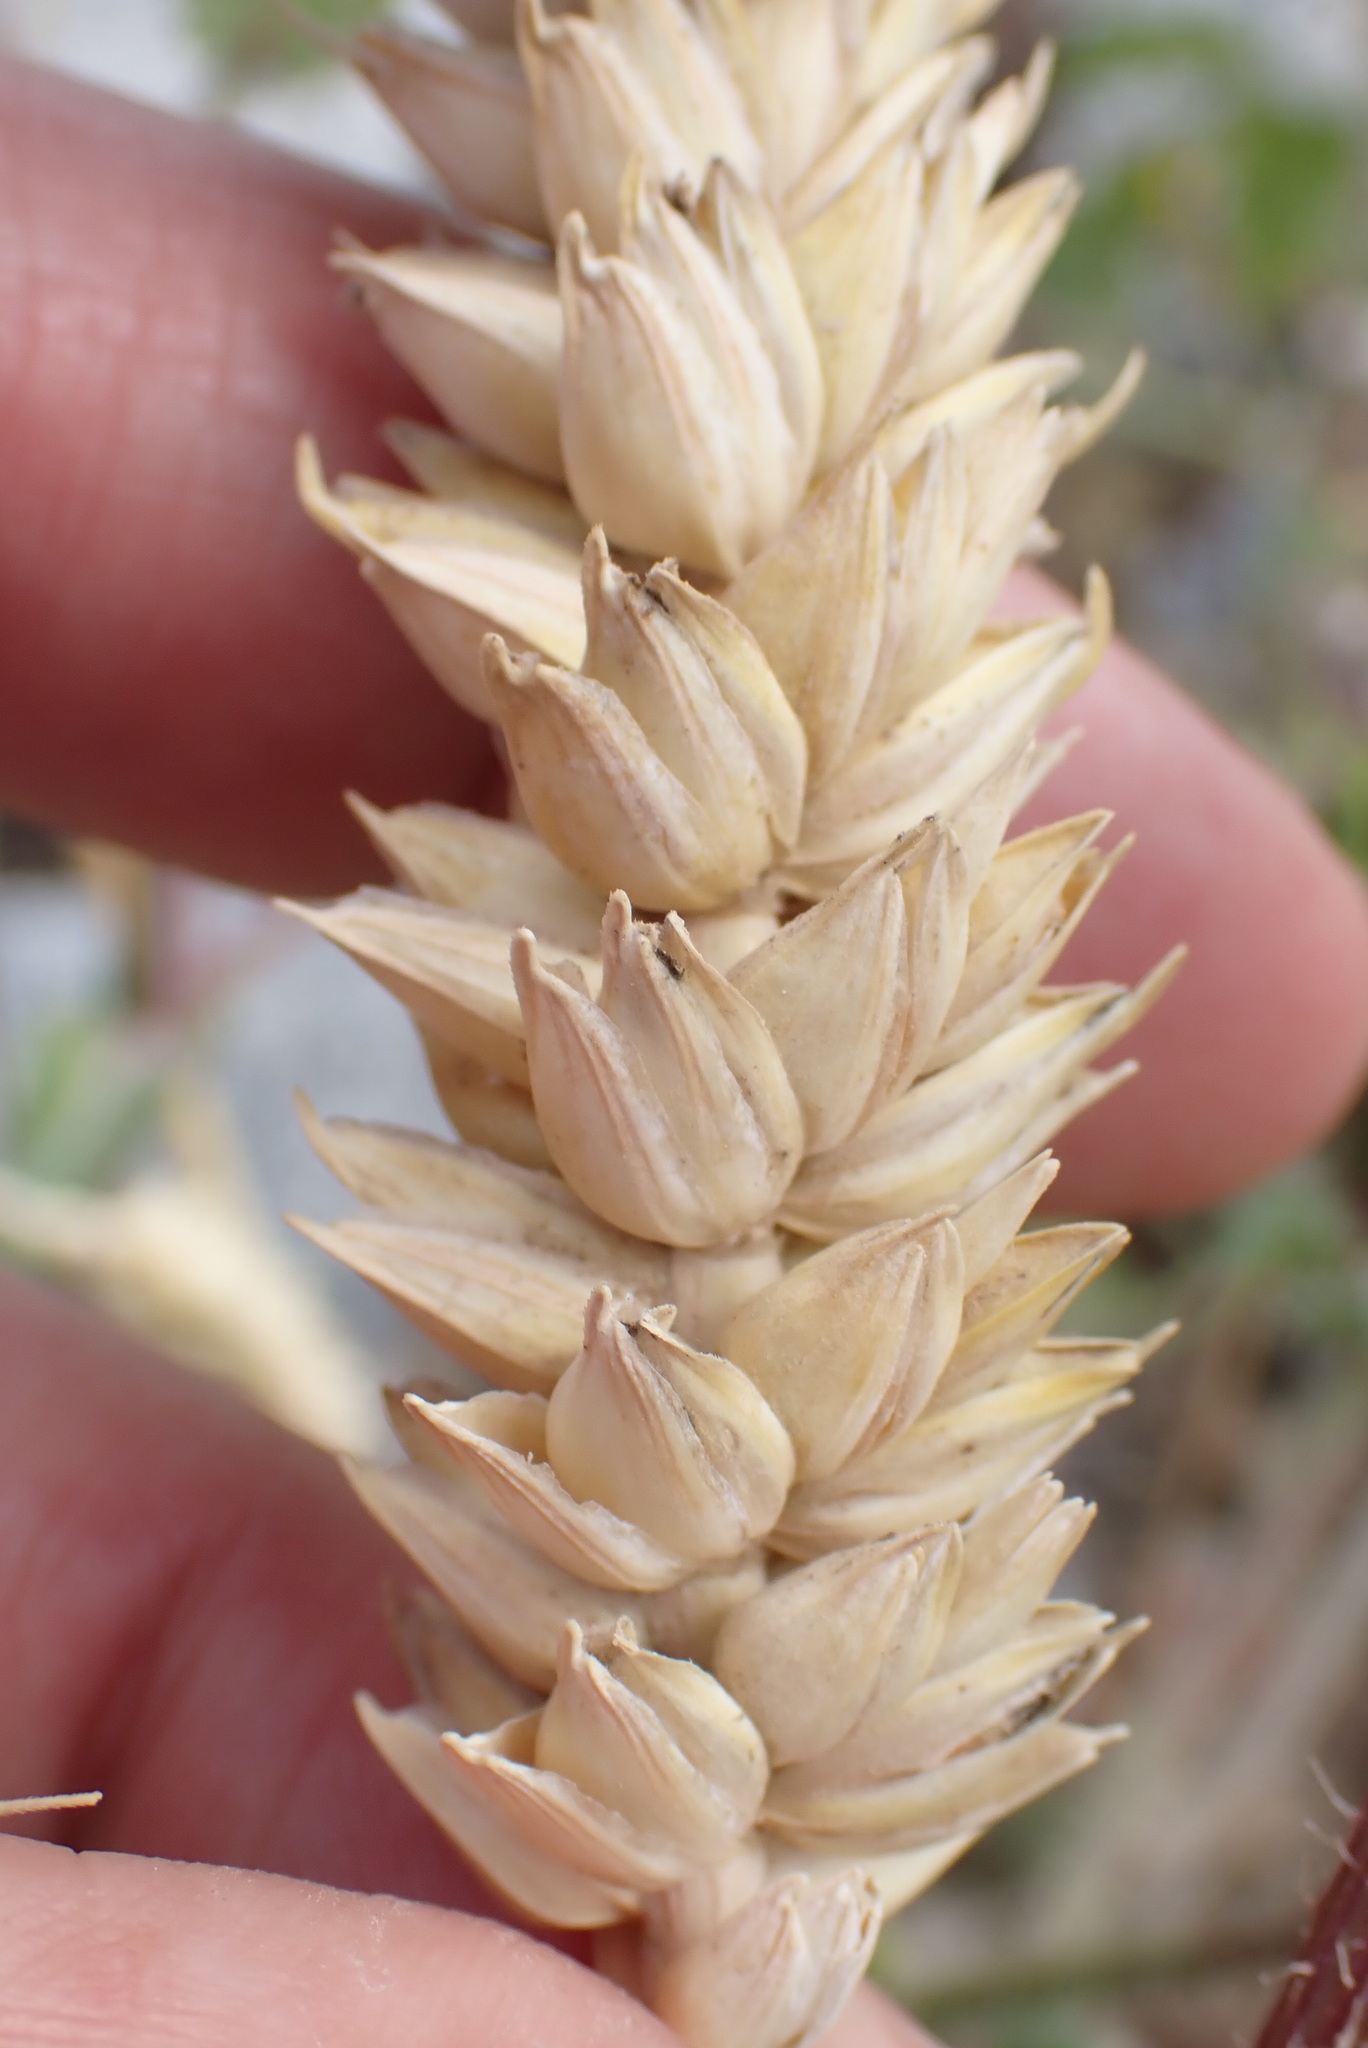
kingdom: Plantae
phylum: Tracheophyta
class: Liliopsida
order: Poales
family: Poaceae
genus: Triticum
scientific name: Triticum aestivum
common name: Common wheat
